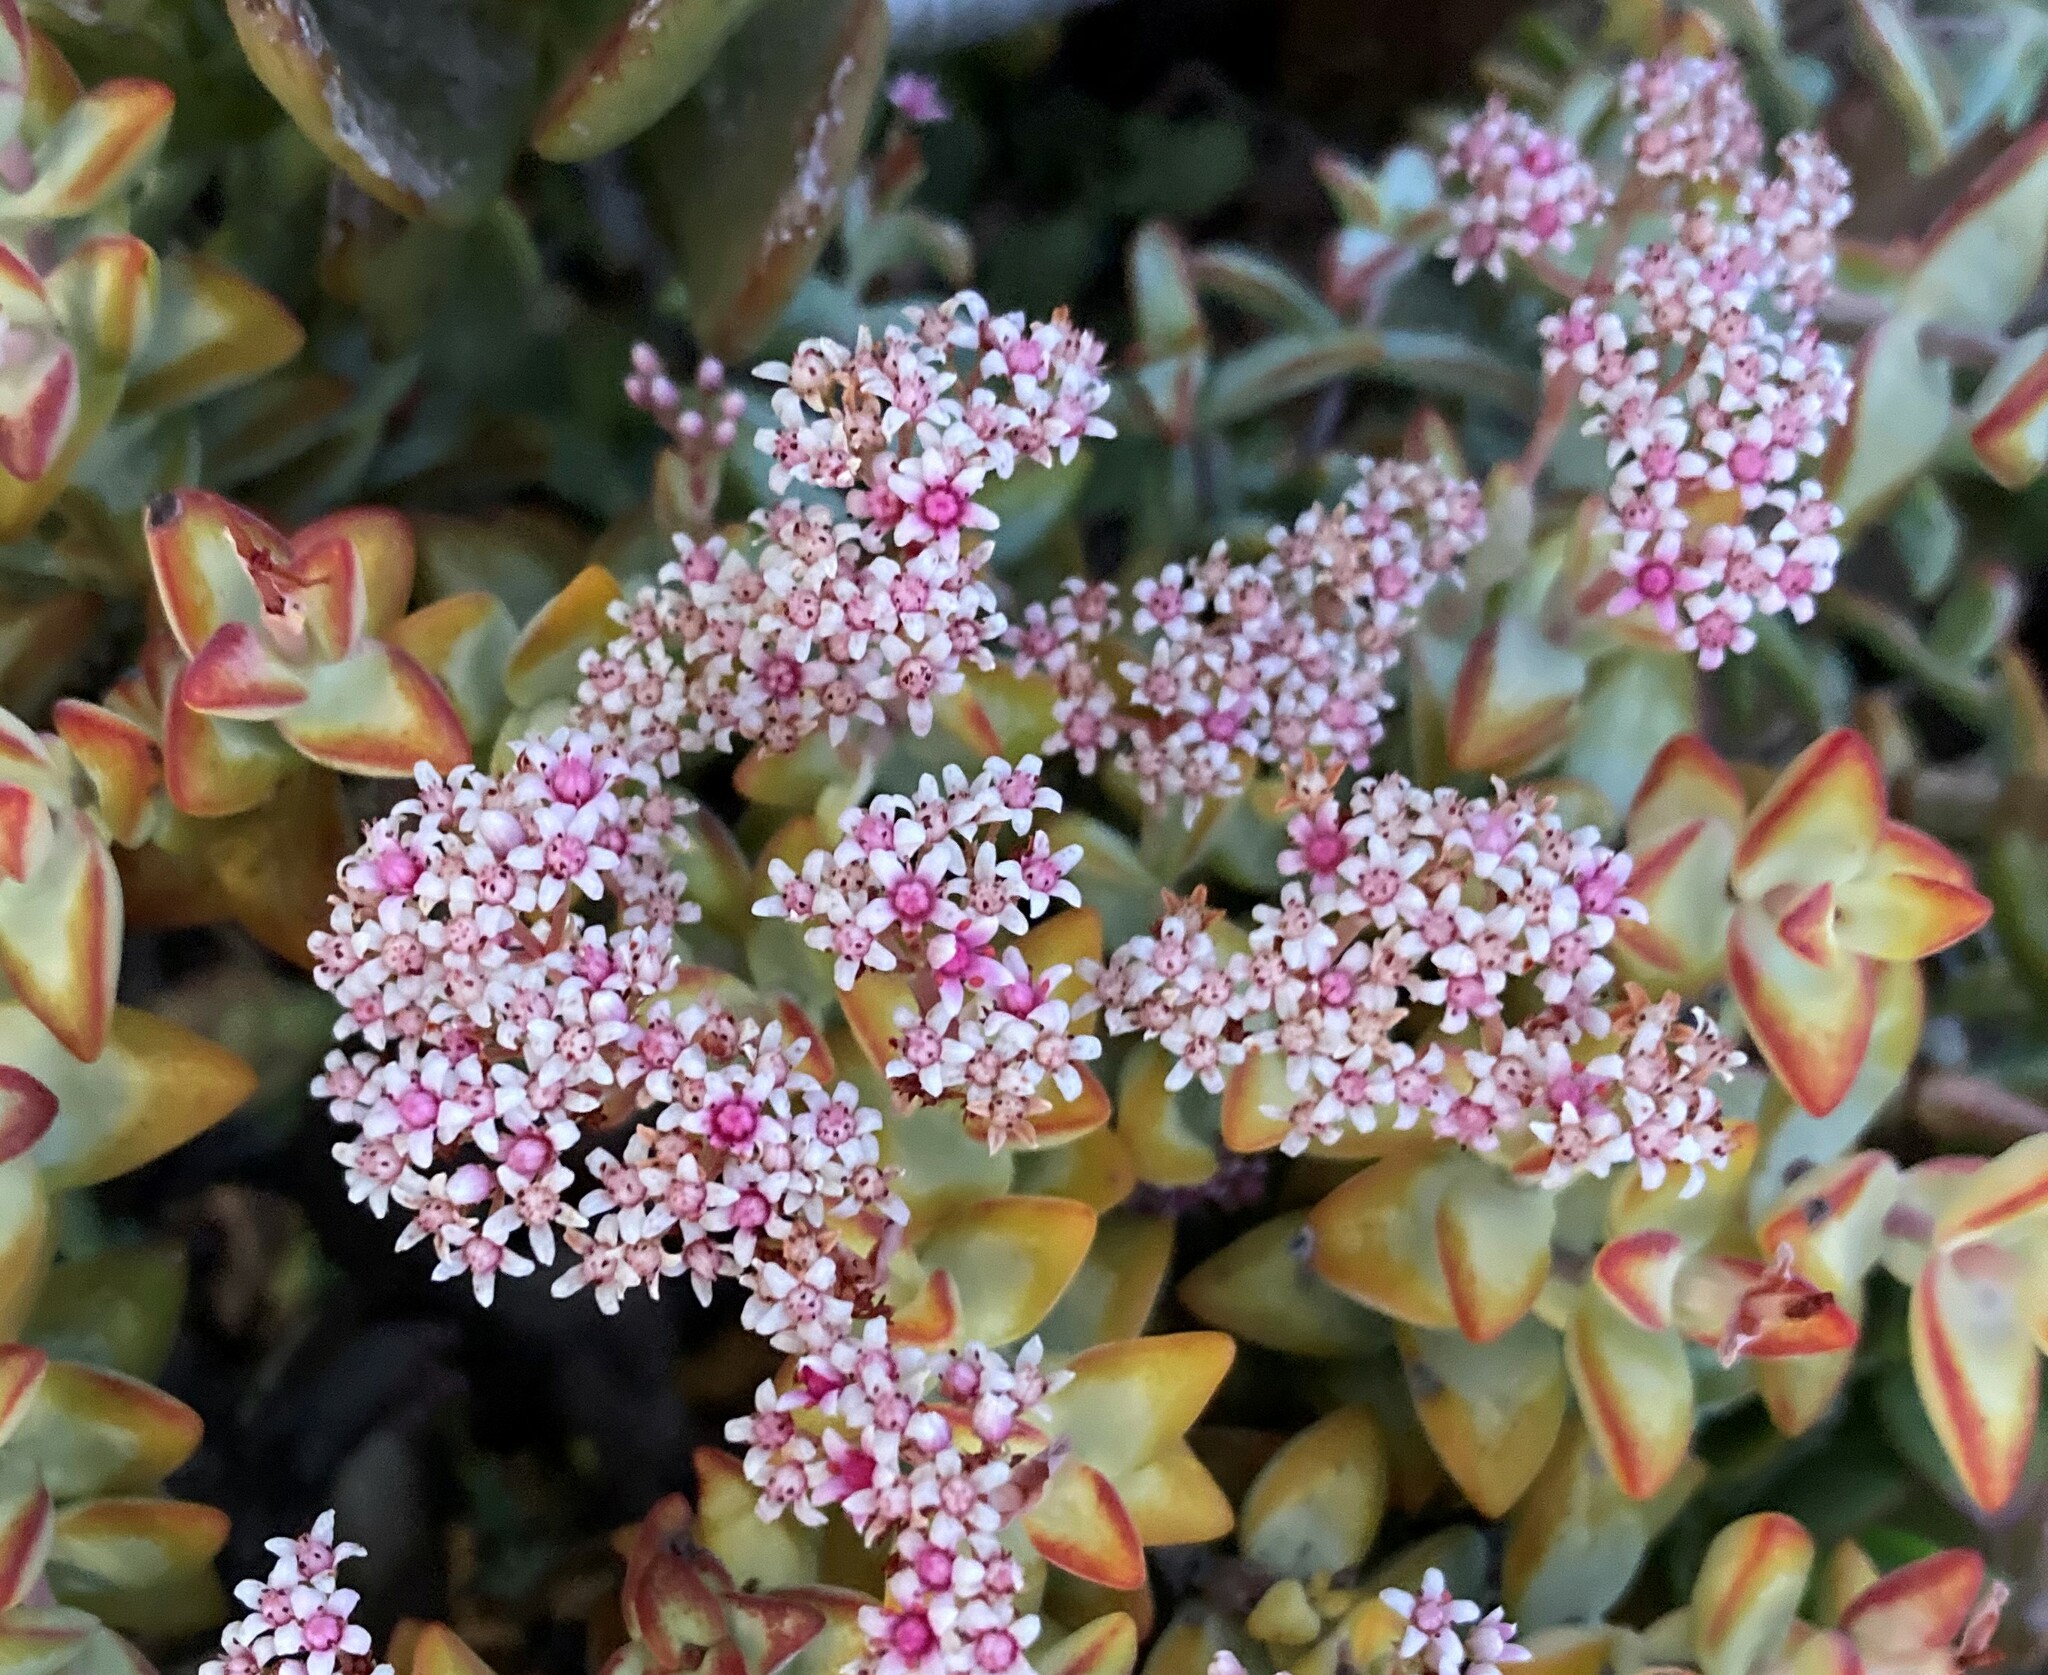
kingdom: Plantae
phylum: Tracheophyta
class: Magnoliopsida
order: Saxifragales
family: Crassulaceae
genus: Crassula
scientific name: Crassula rupestris
